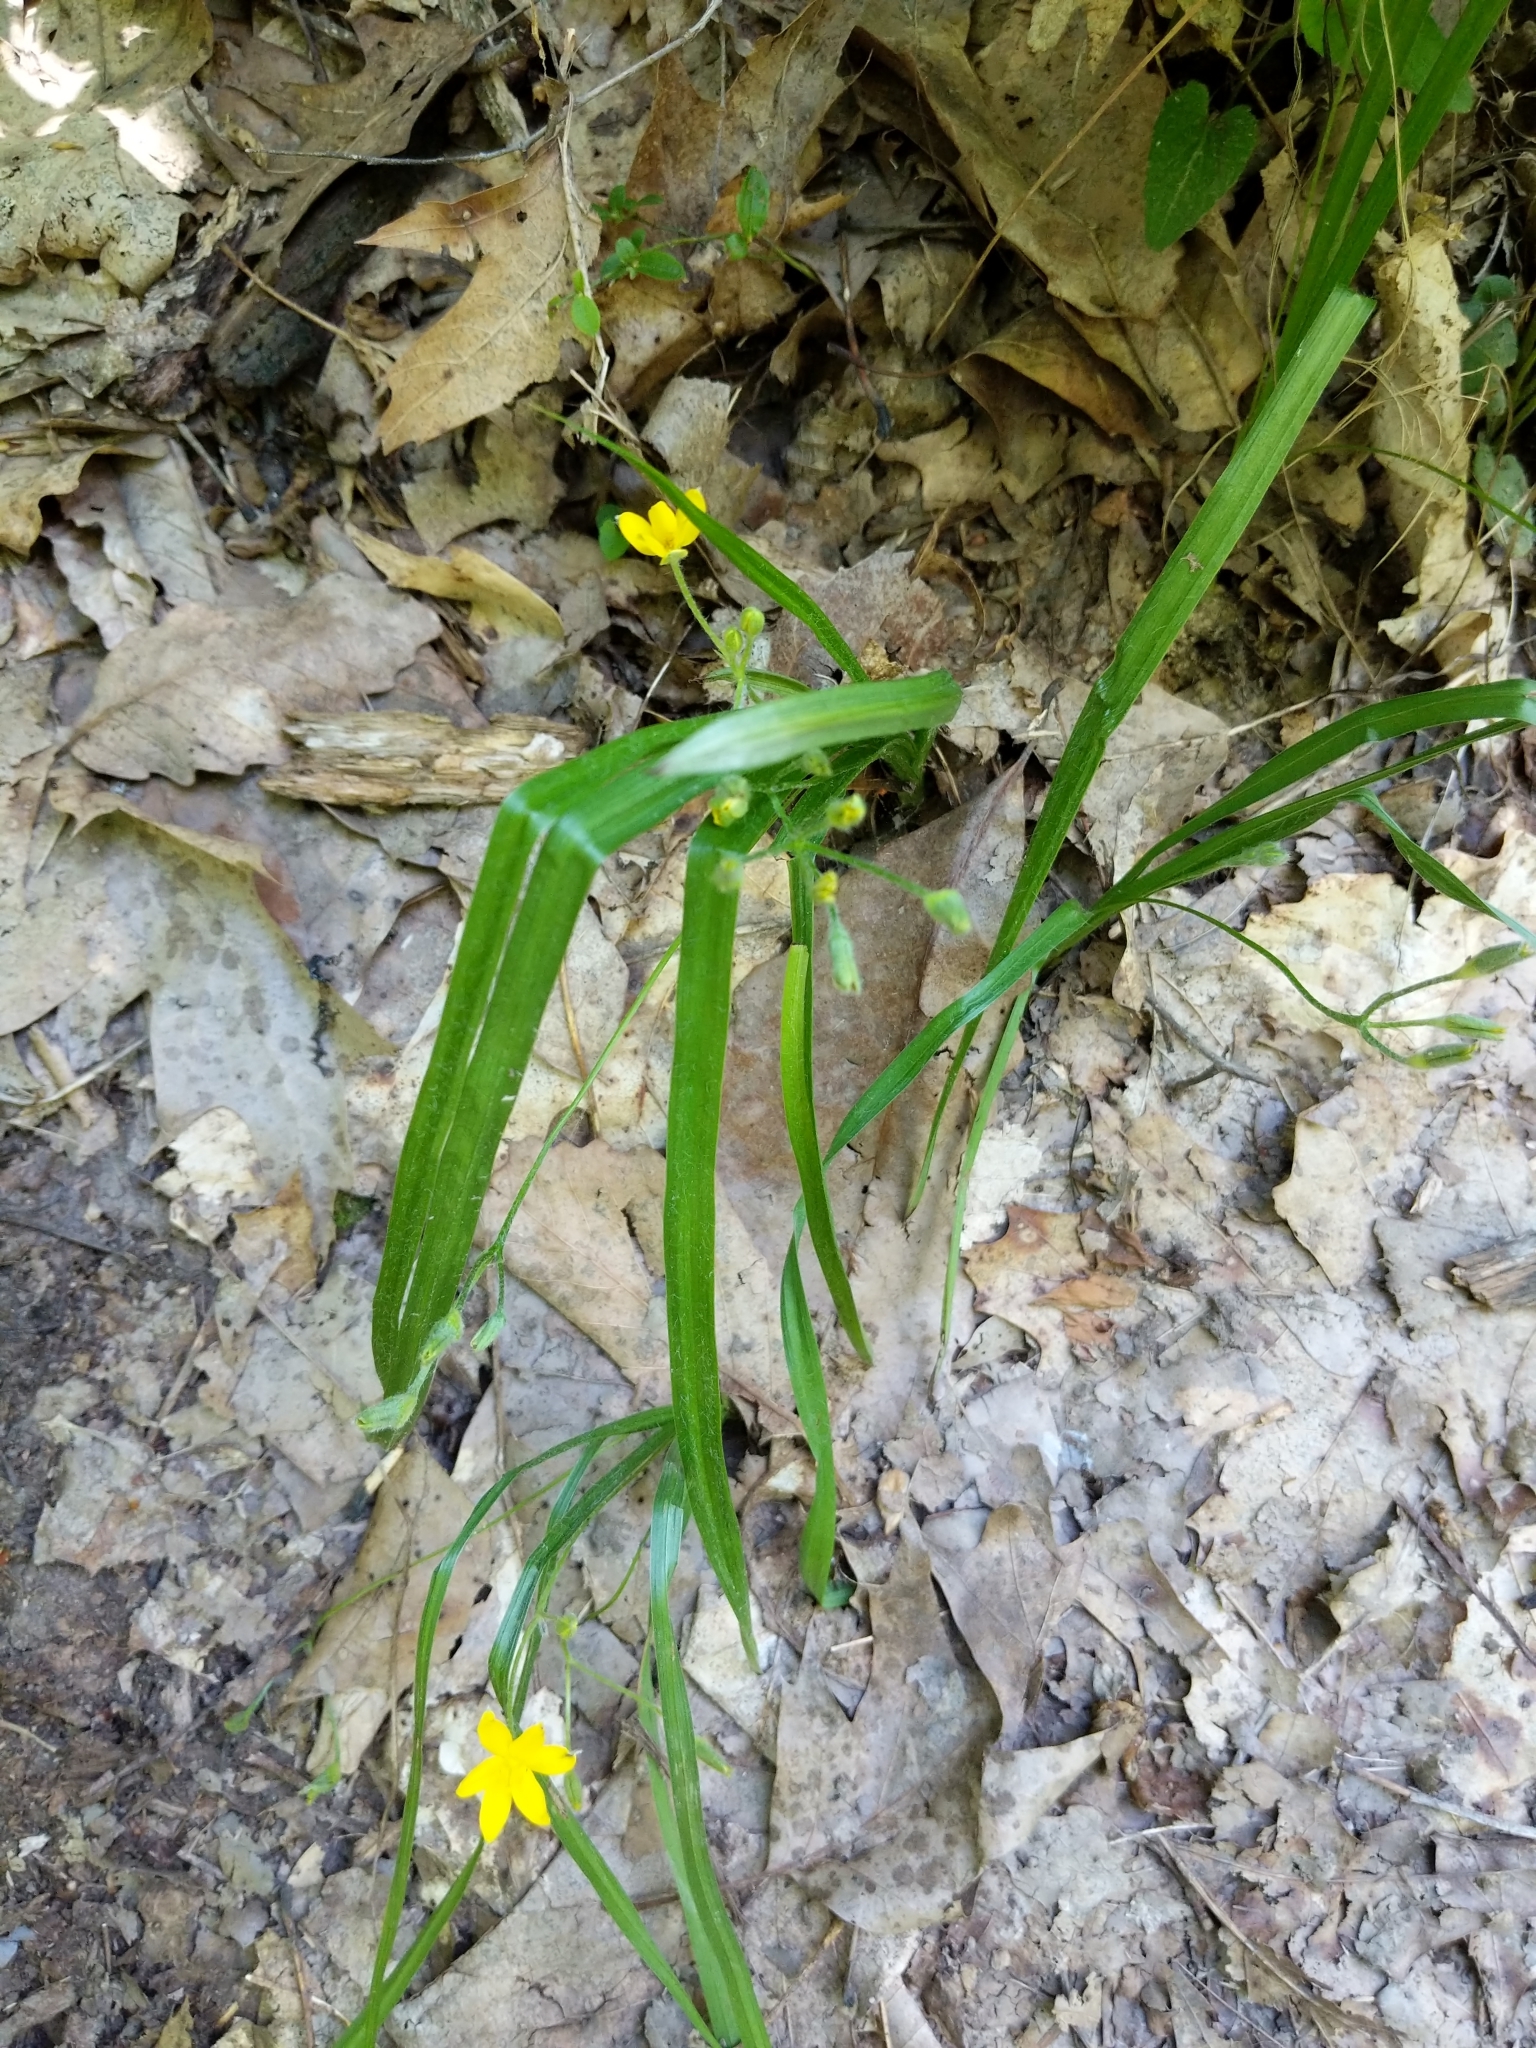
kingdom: Plantae
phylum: Tracheophyta
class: Liliopsida
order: Asparagales
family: Hypoxidaceae
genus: Hypoxis
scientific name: Hypoxis hirsuta
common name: Common goldstar
